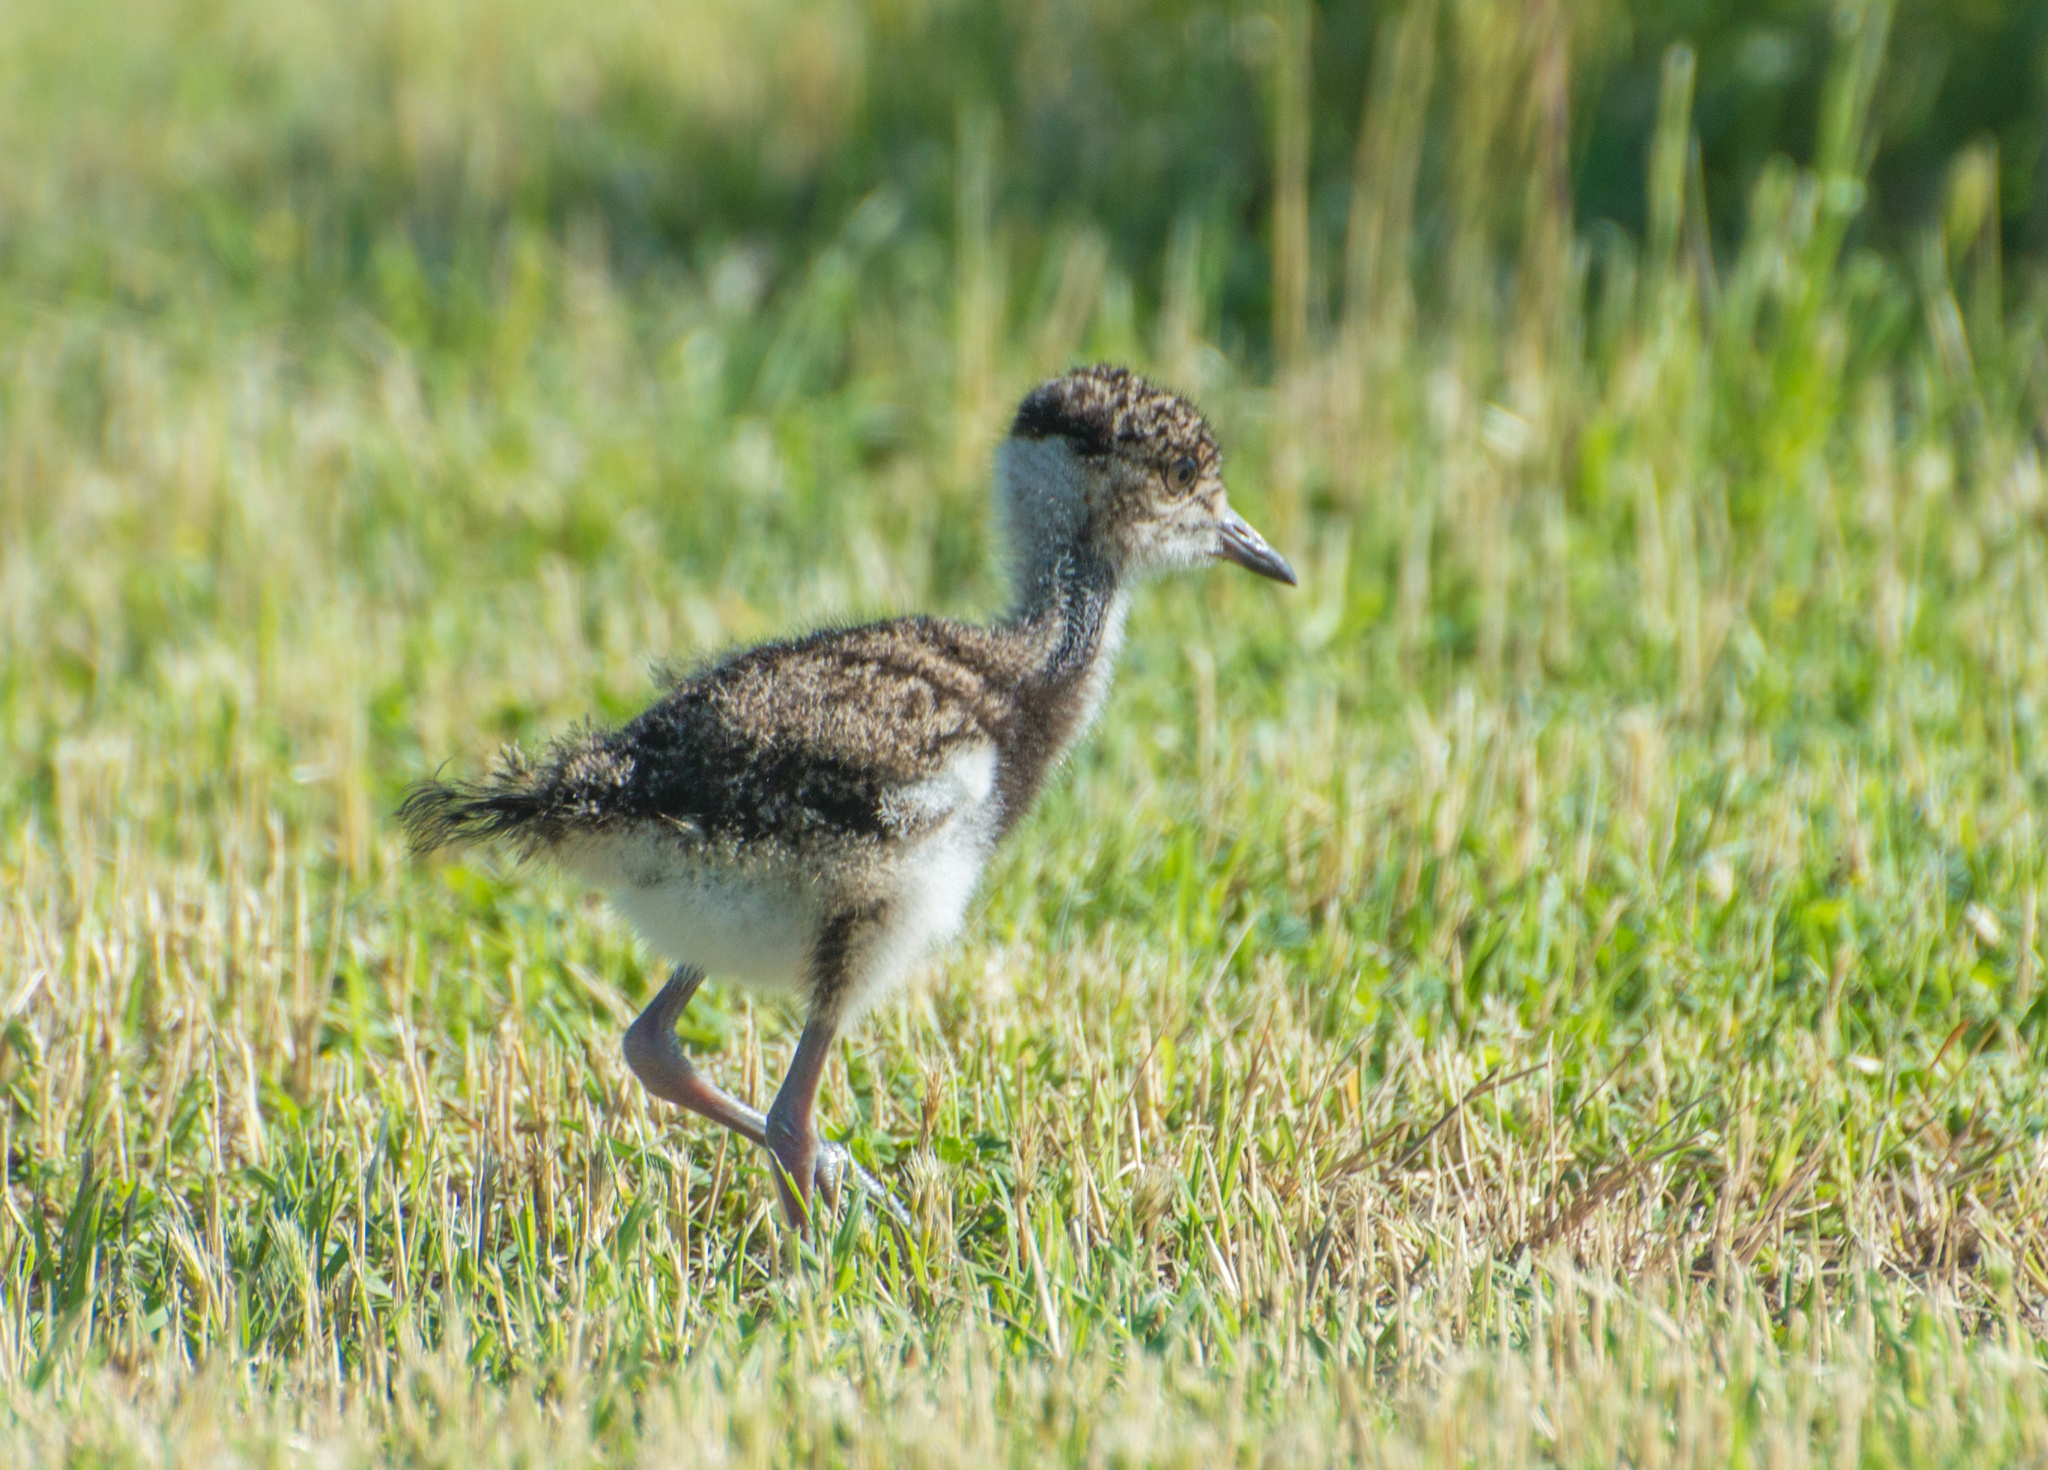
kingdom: Animalia
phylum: Chordata
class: Aves
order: Charadriiformes
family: Charadriidae
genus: Vanellus
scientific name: Vanellus chilensis
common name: Southern lapwing
